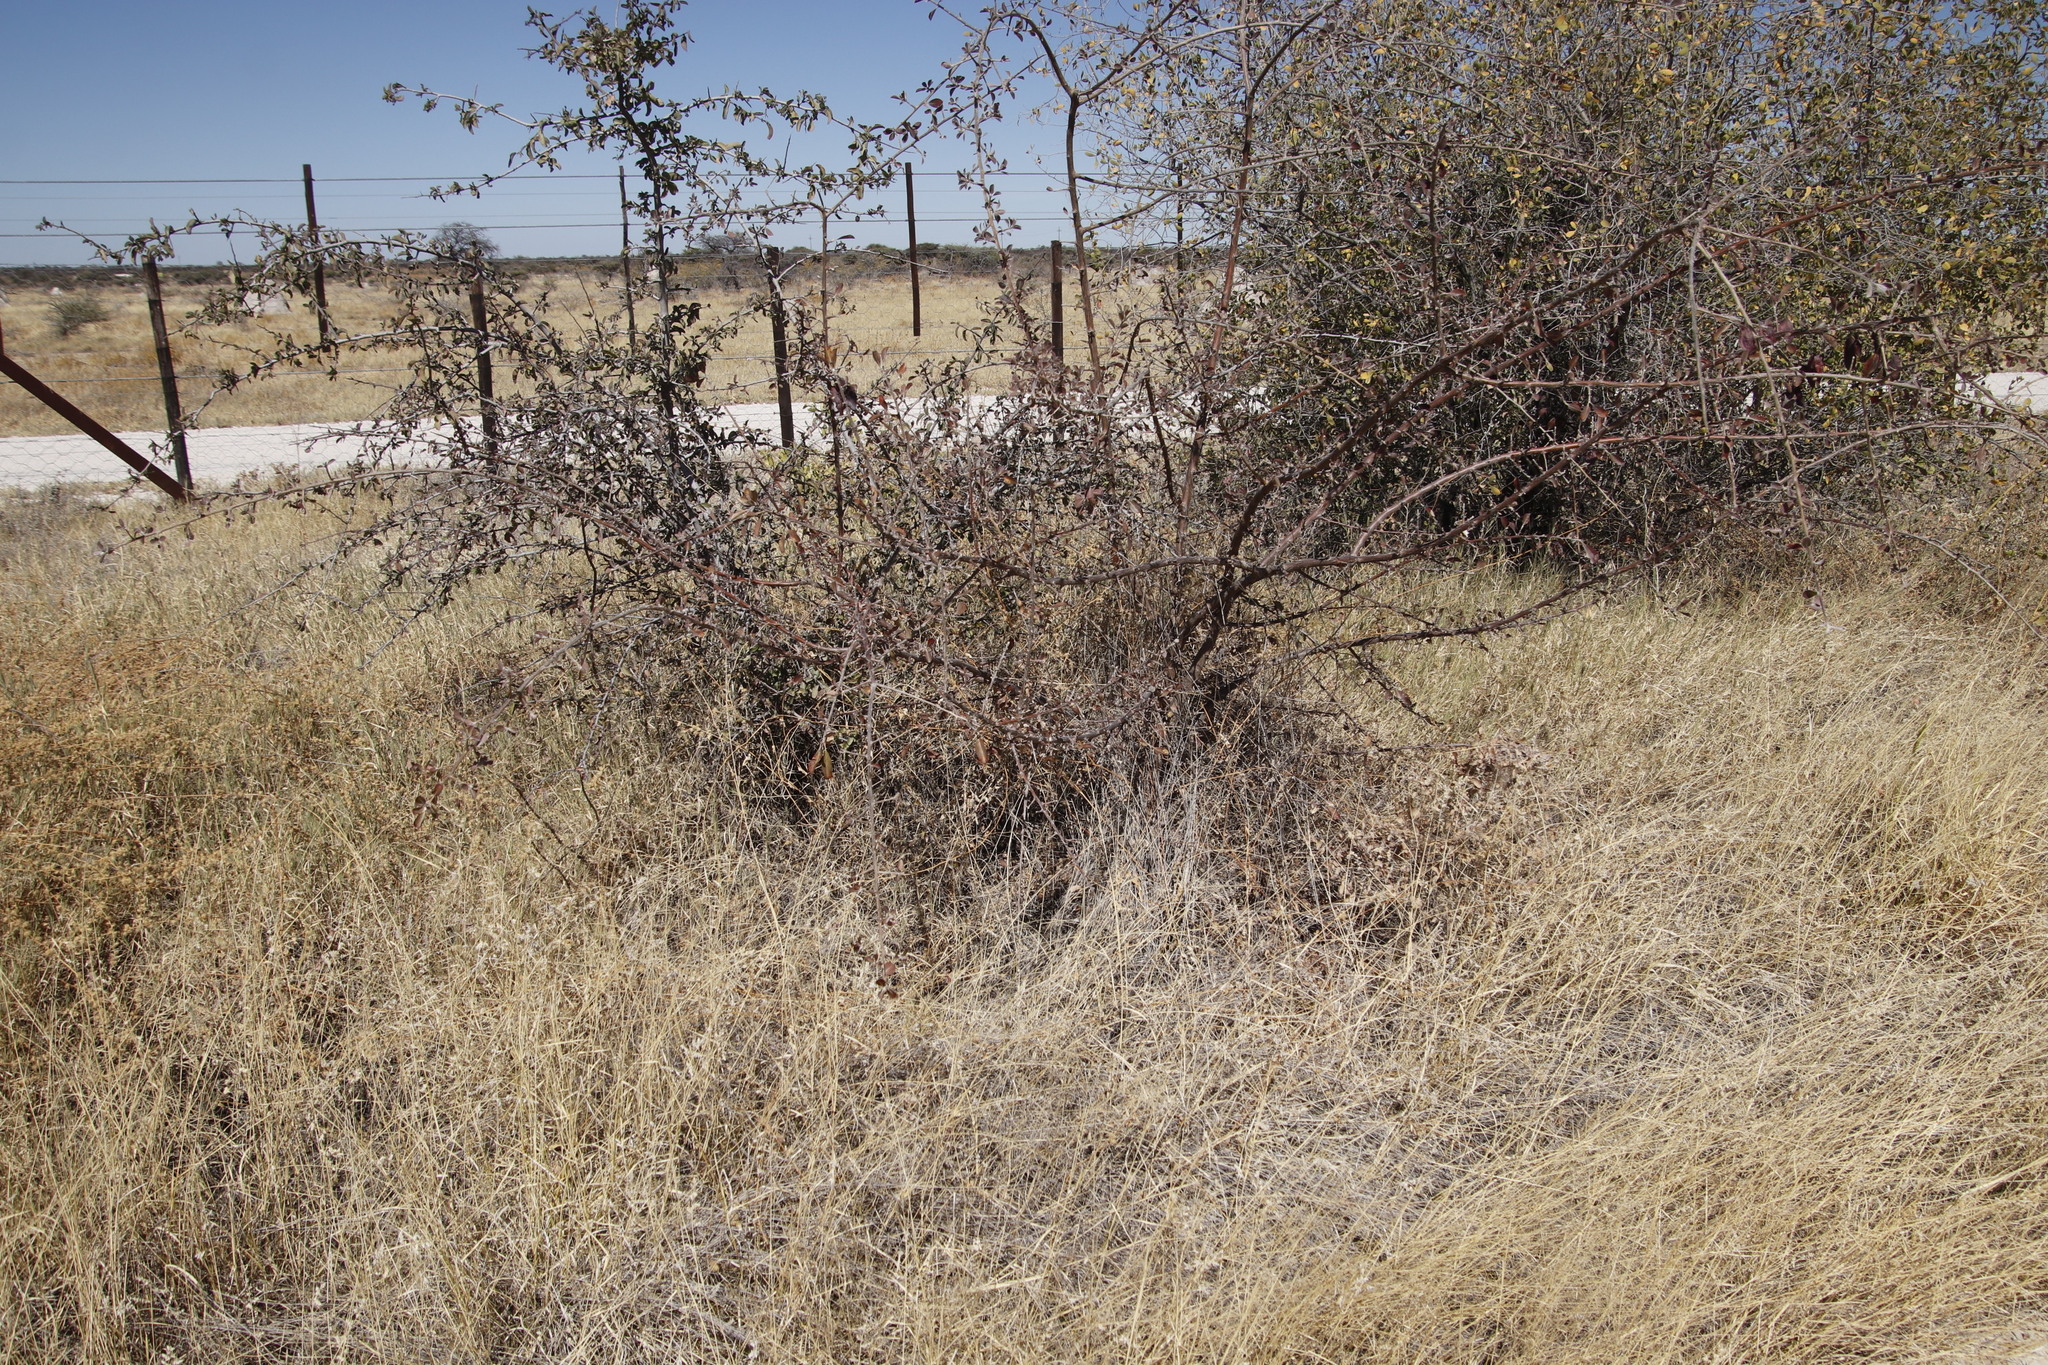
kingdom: Plantae
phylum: Tracheophyta
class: Magnoliopsida
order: Myrtales
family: Combretaceae
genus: Terminalia
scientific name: Terminalia prunioides
